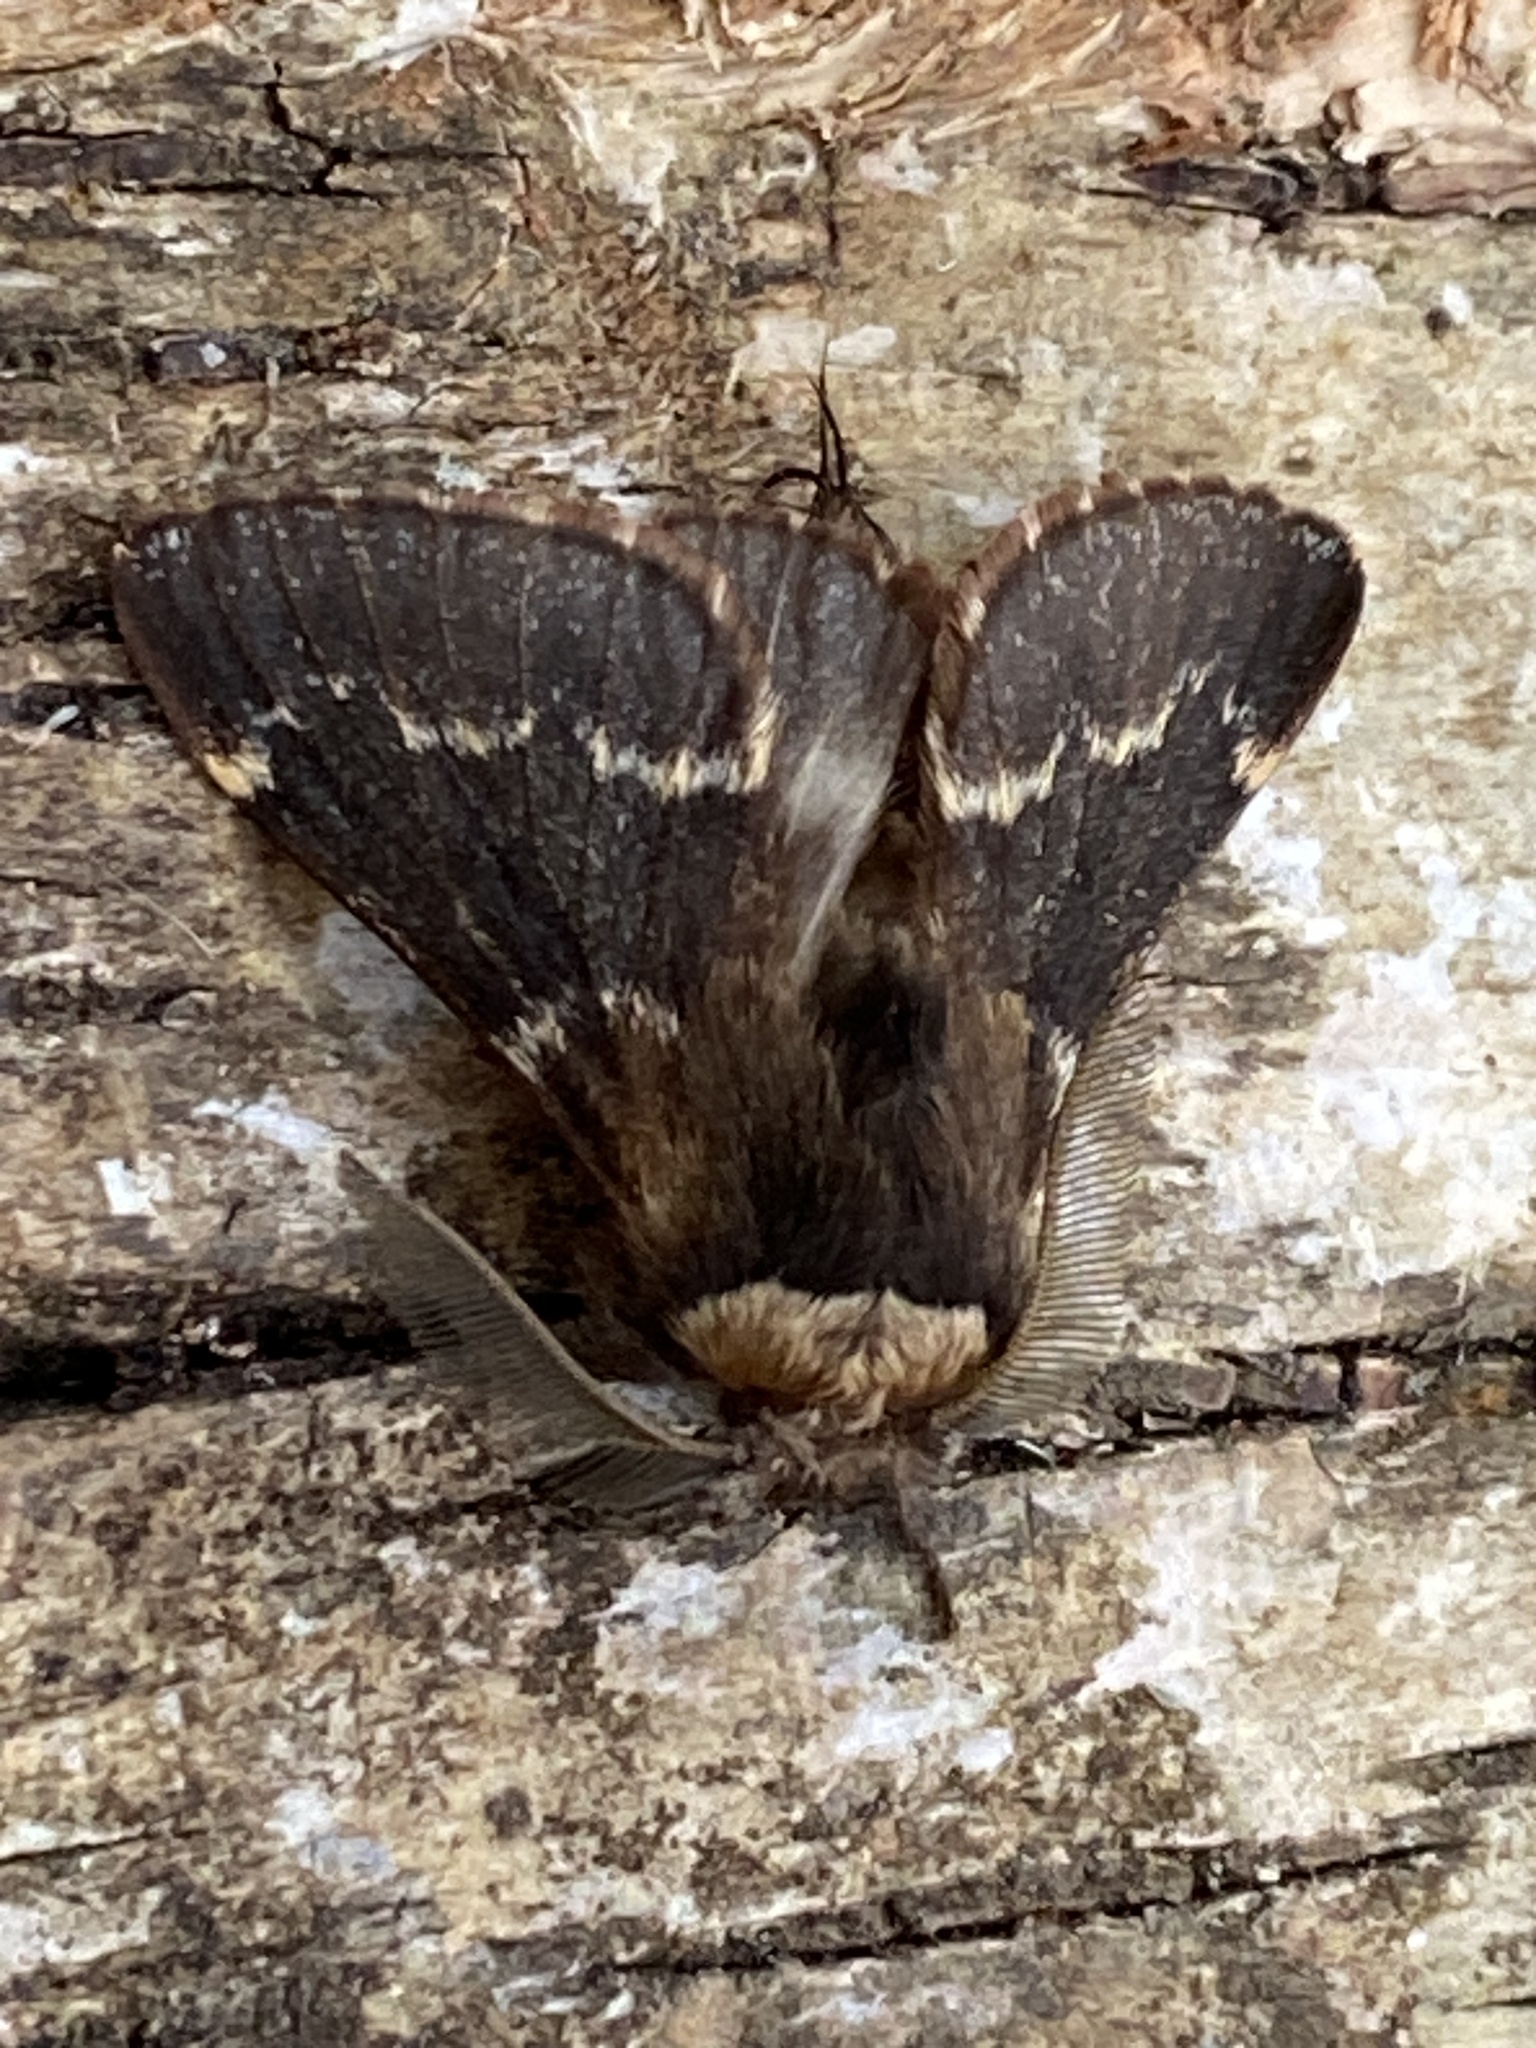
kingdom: Animalia
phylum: Arthropoda
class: Insecta
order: Lepidoptera
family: Lasiocampidae
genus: Poecilocampa
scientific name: Poecilocampa populi
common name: December moth
